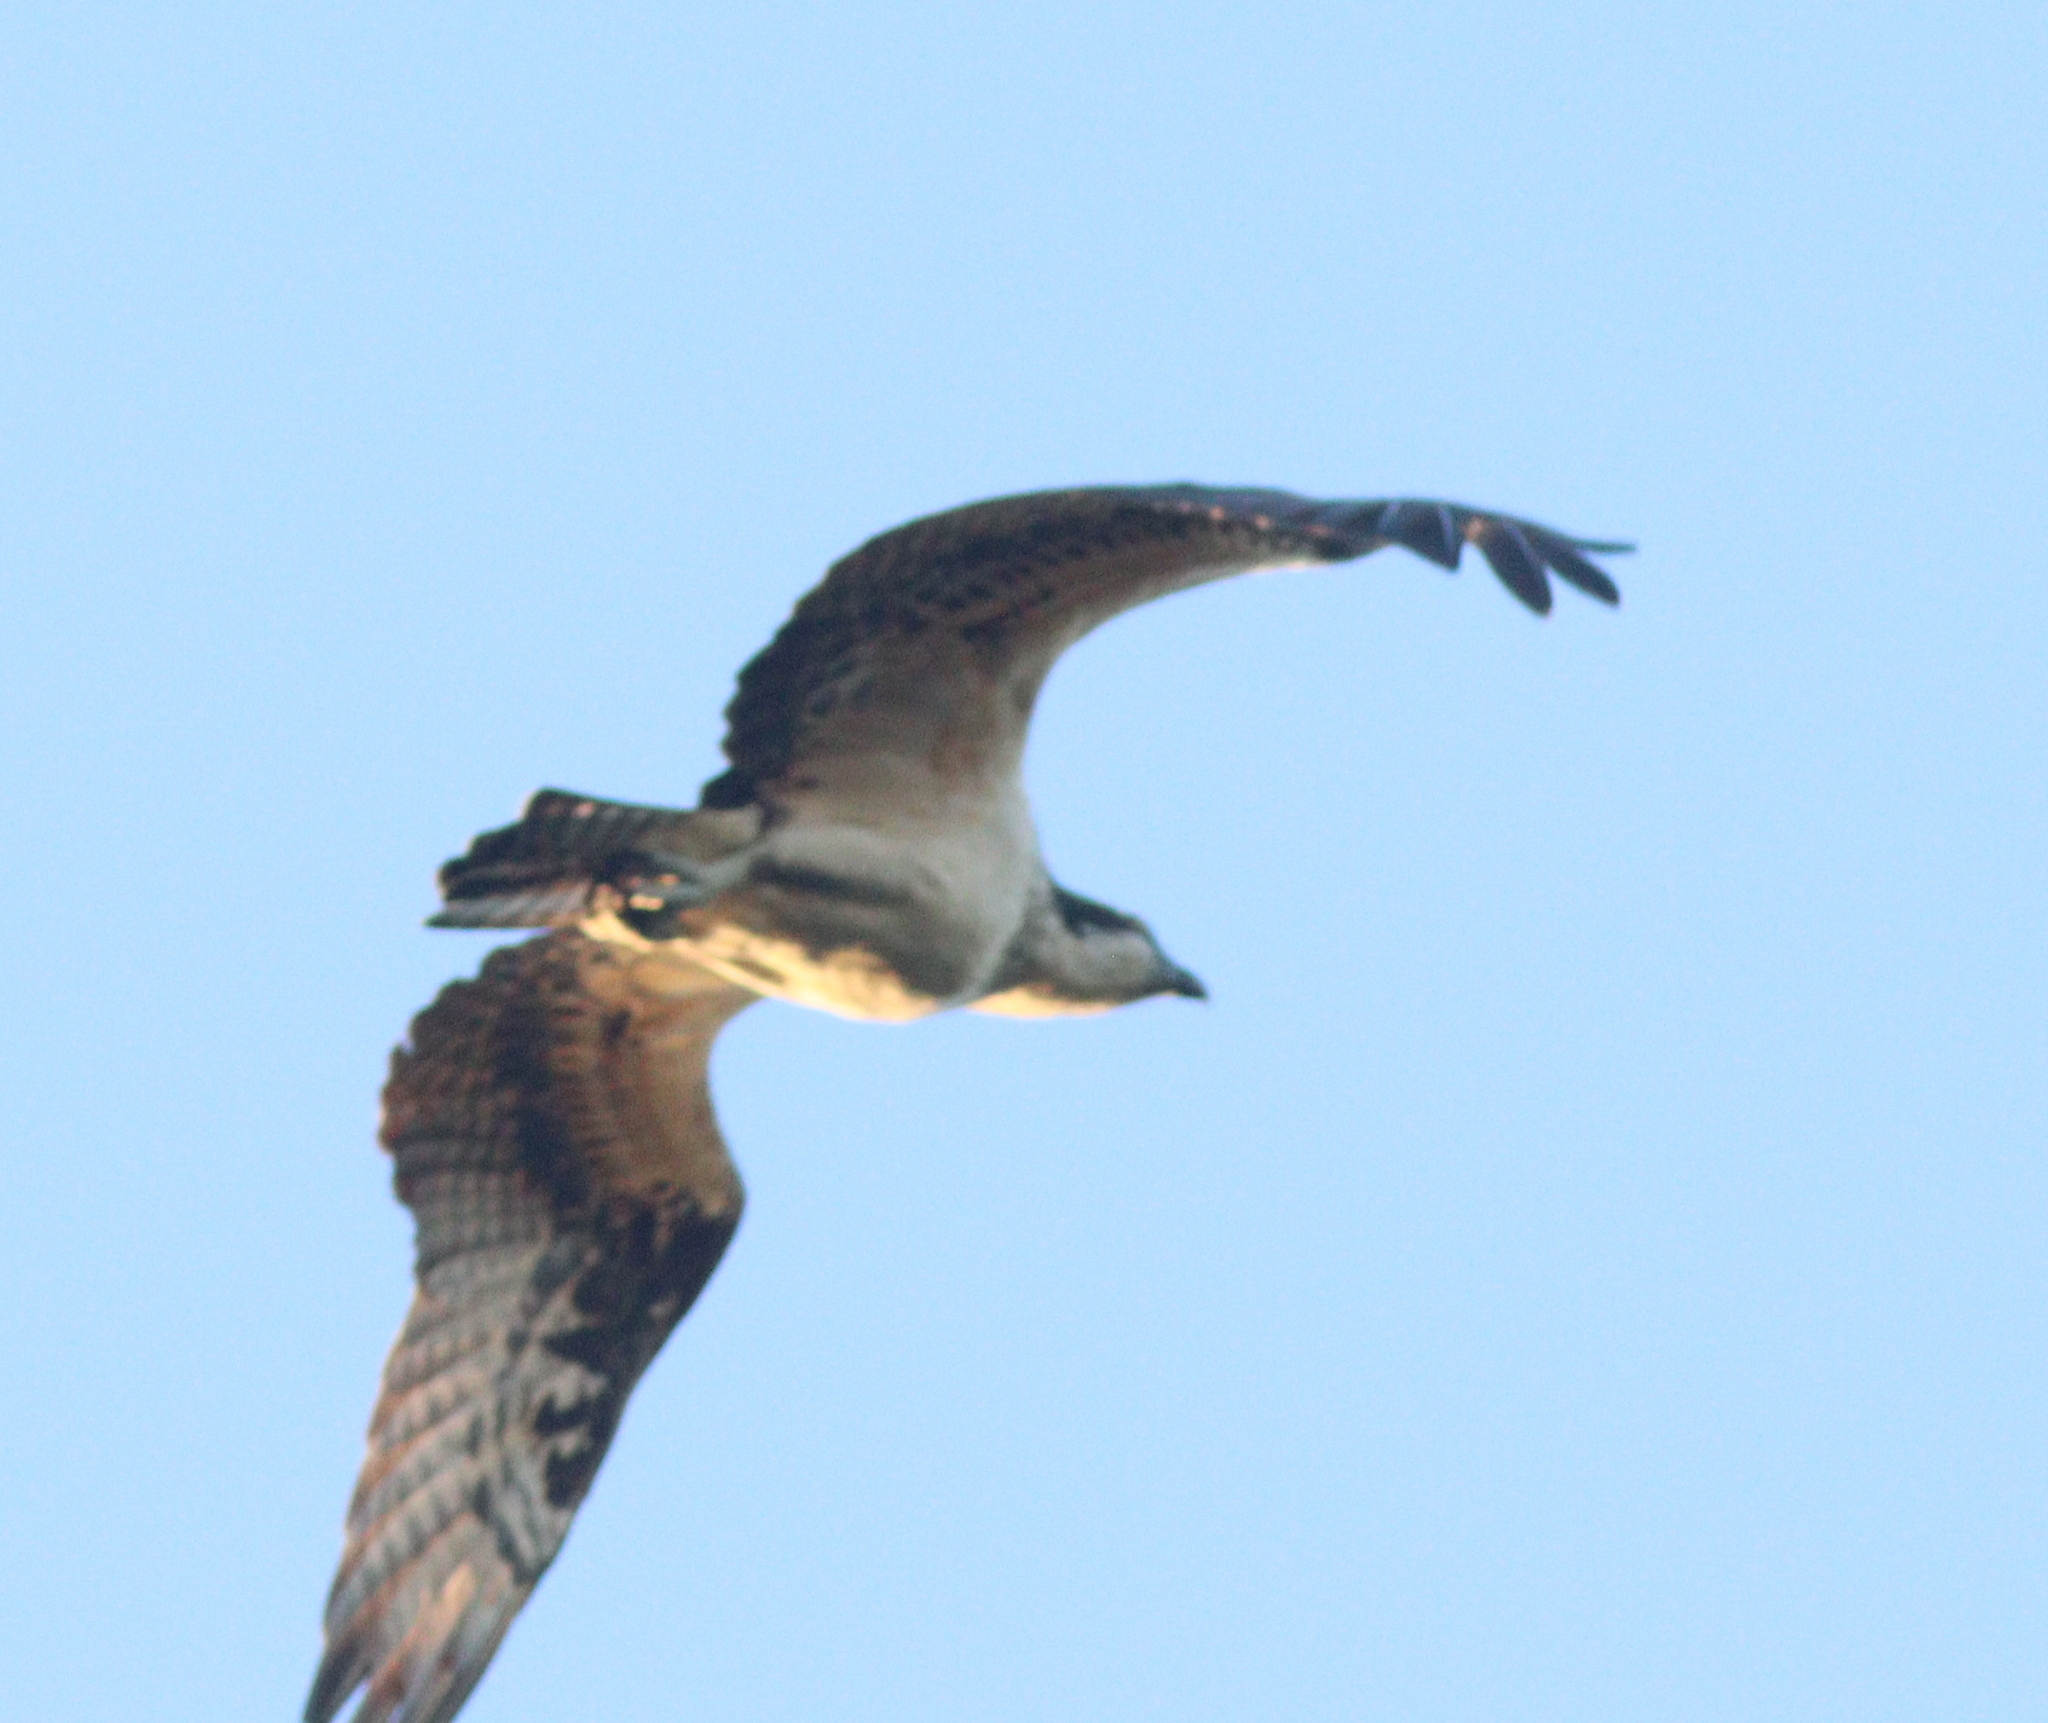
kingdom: Animalia
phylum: Chordata
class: Aves
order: Accipitriformes
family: Pandionidae
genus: Pandion
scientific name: Pandion haliaetus
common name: Osprey
